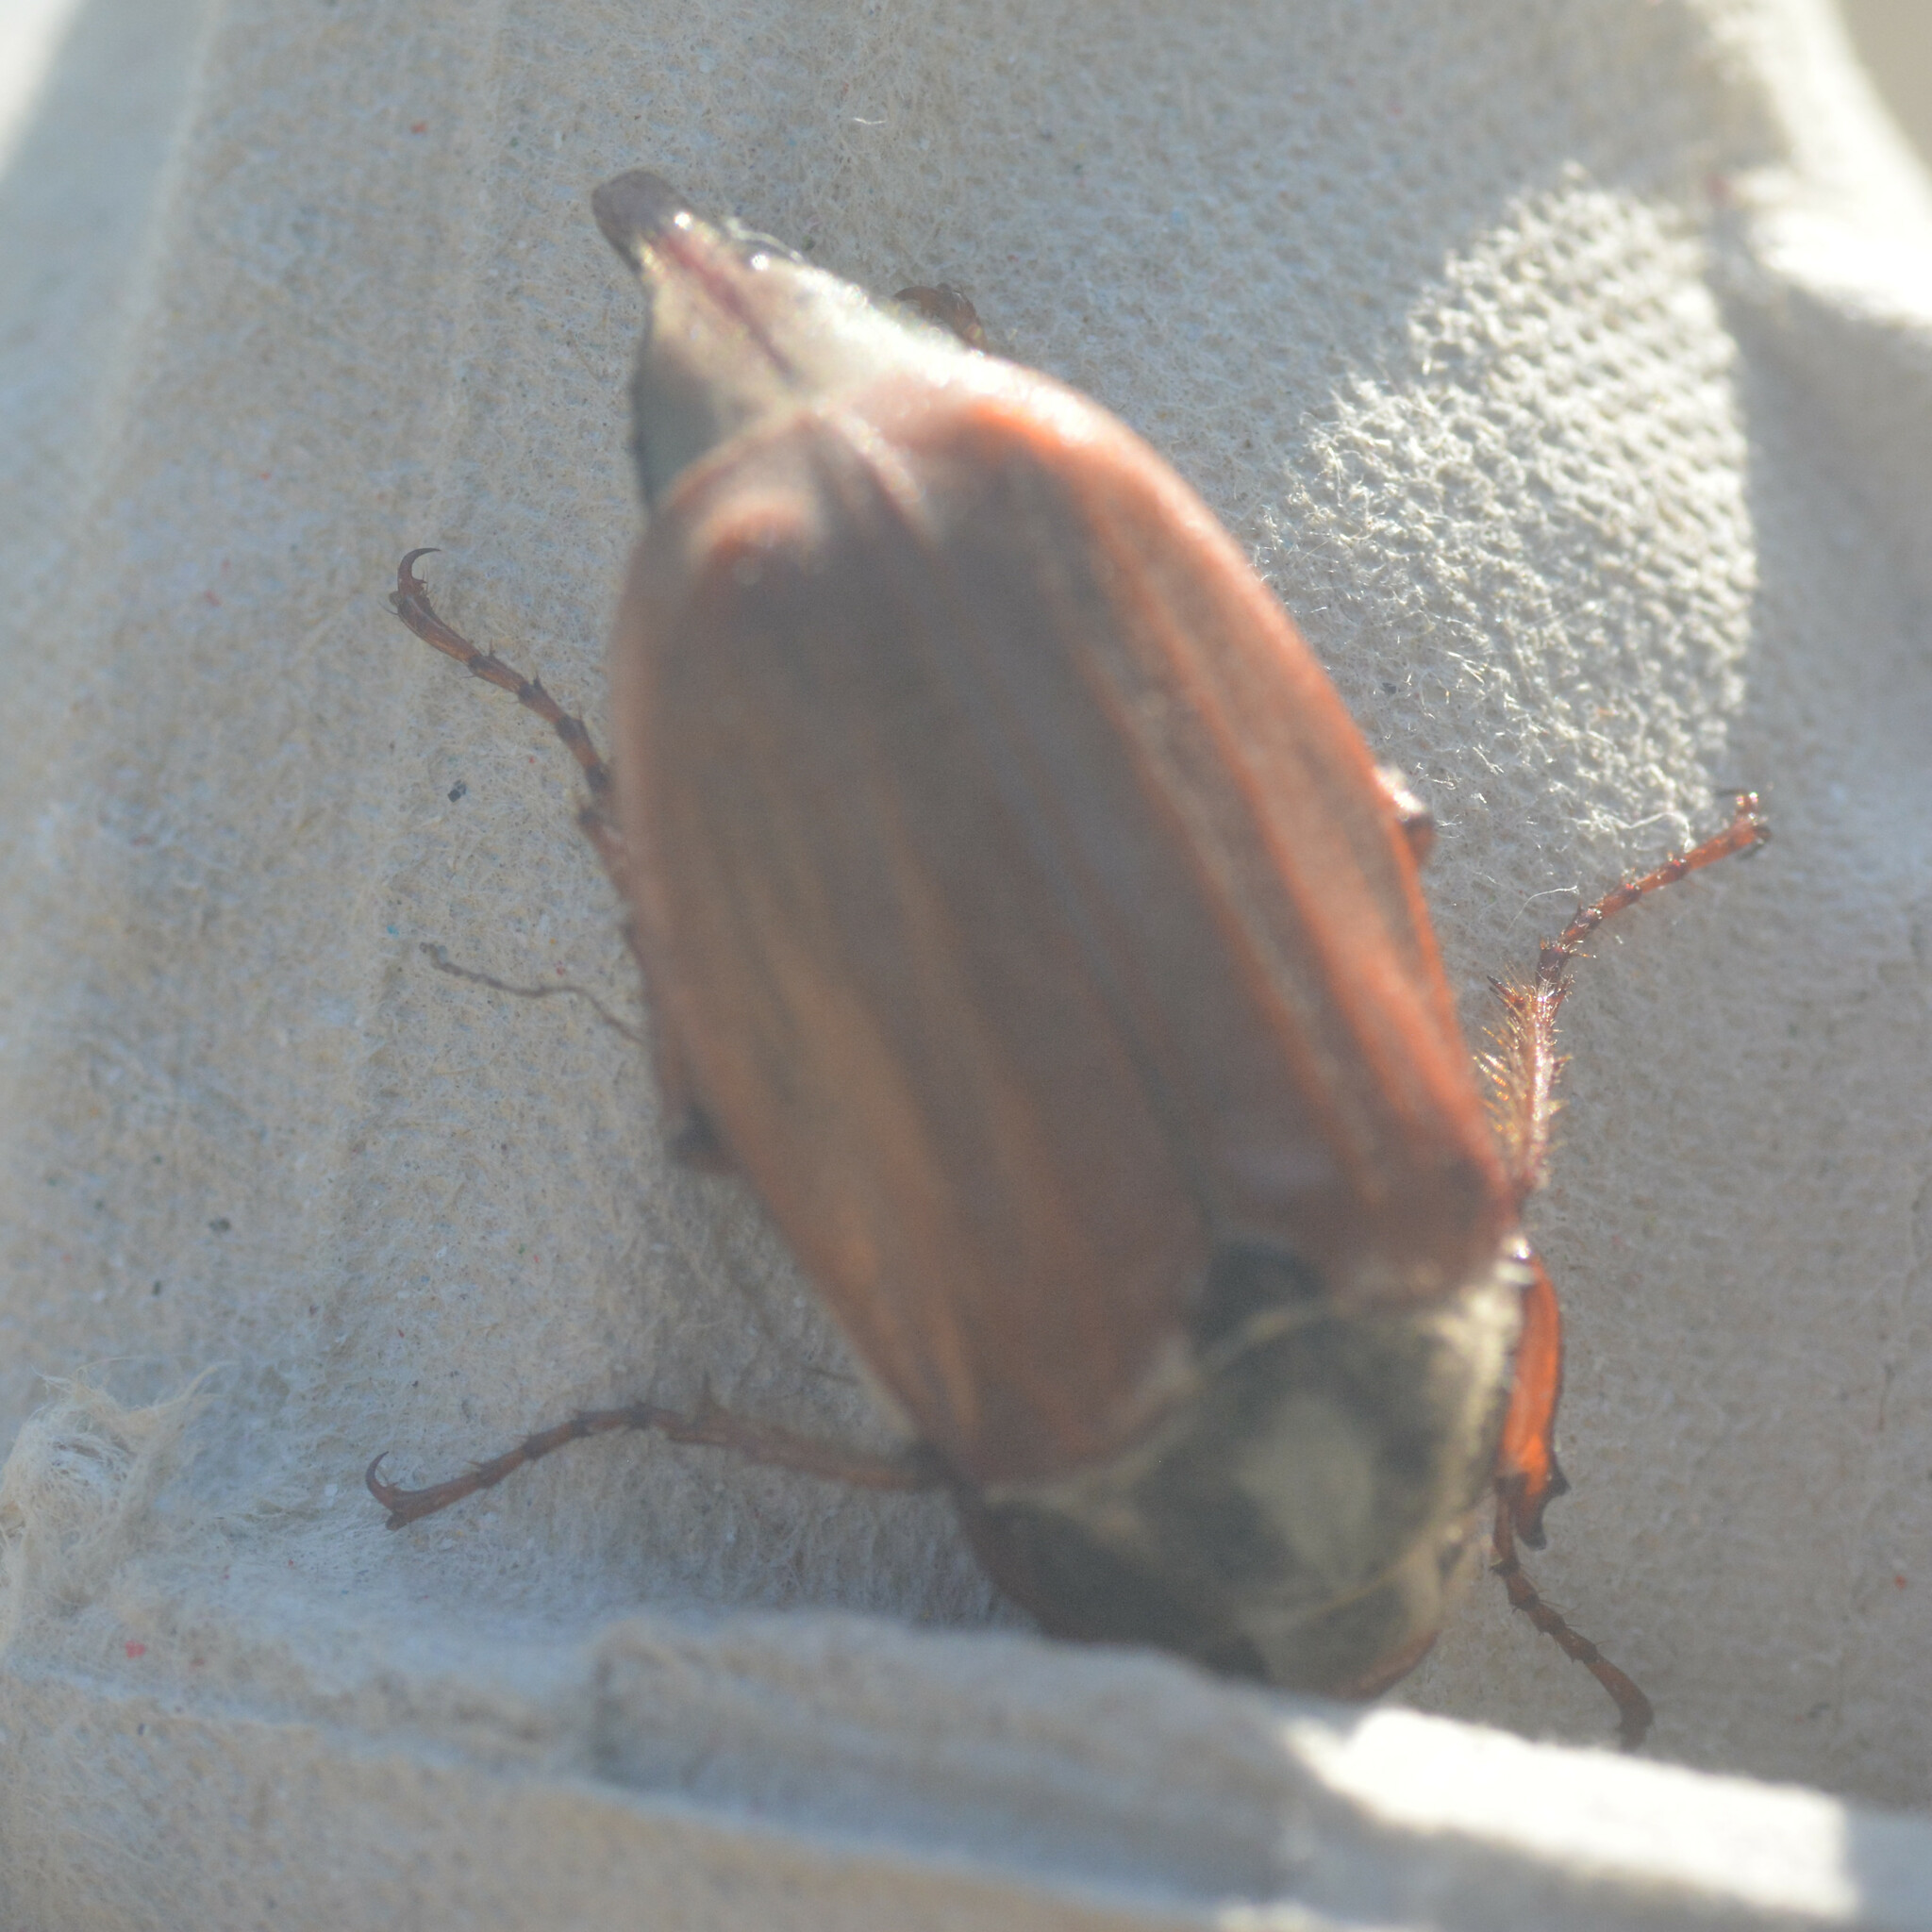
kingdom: Animalia
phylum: Arthropoda
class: Insecta
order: Coleoptera
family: Scarabaeidae
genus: Melolontha
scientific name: Melolontha melolontha
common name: Cockchafer maybeetle
